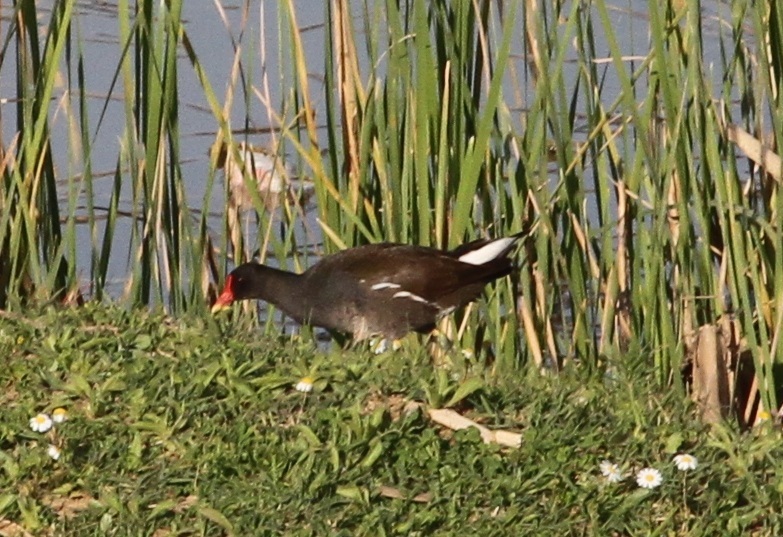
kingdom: Animalia
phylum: Chordata
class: Aves
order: Gruiformes
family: Rallidae
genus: Gallinula
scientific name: Gallinula chloropus
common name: Common moorhen
